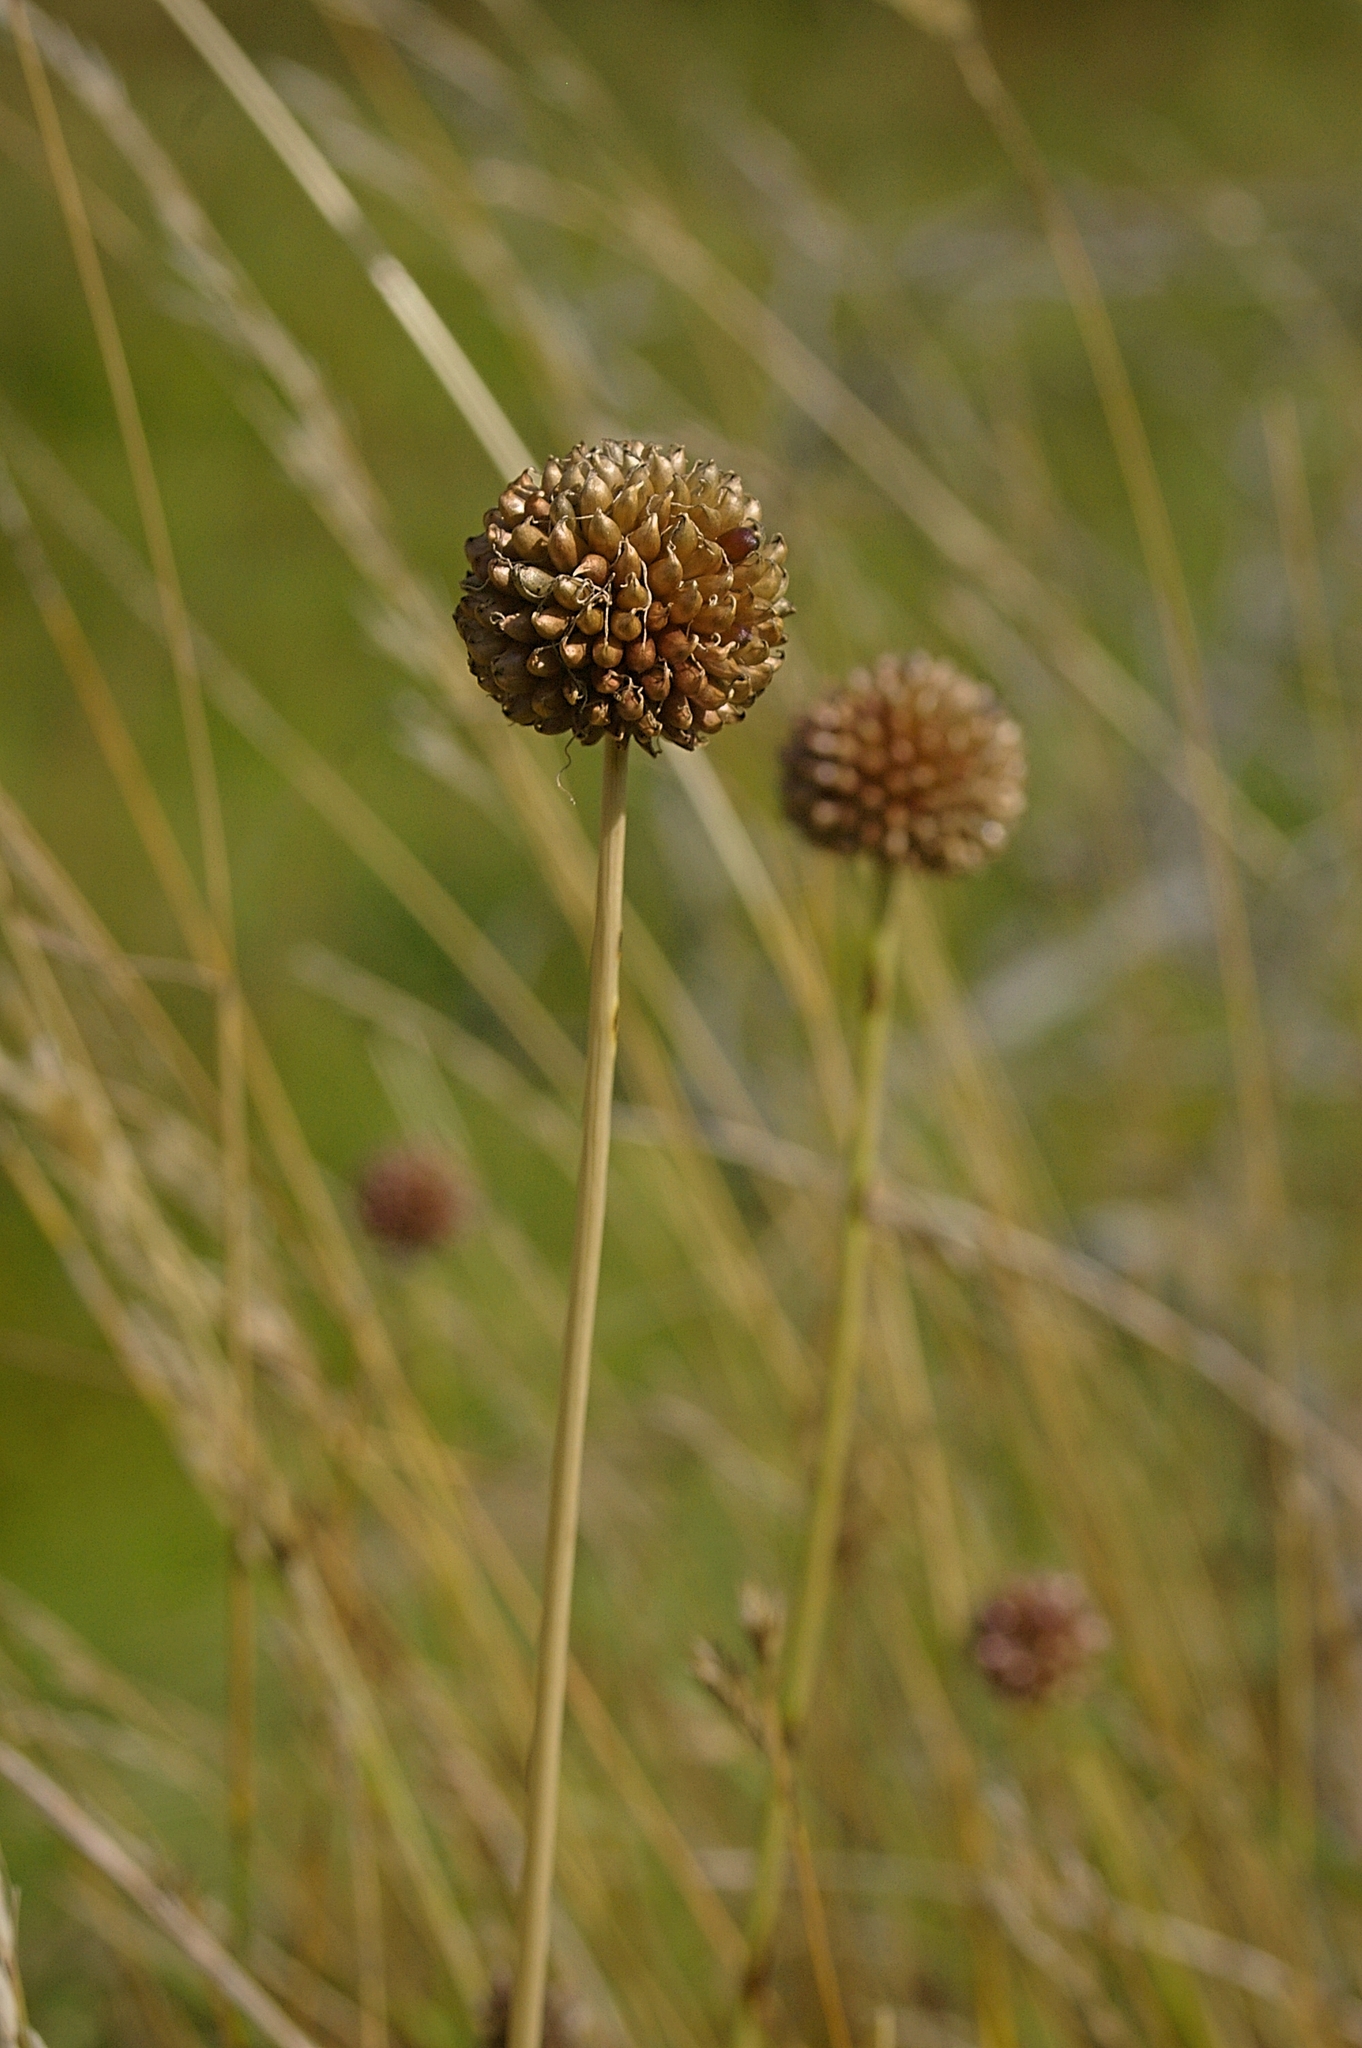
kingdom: Plantae
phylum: Tracheophyta
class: Liliopsida
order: Asparagales
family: Amaryllidaceae
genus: Allium
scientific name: Allium vineale
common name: Crow garlic
